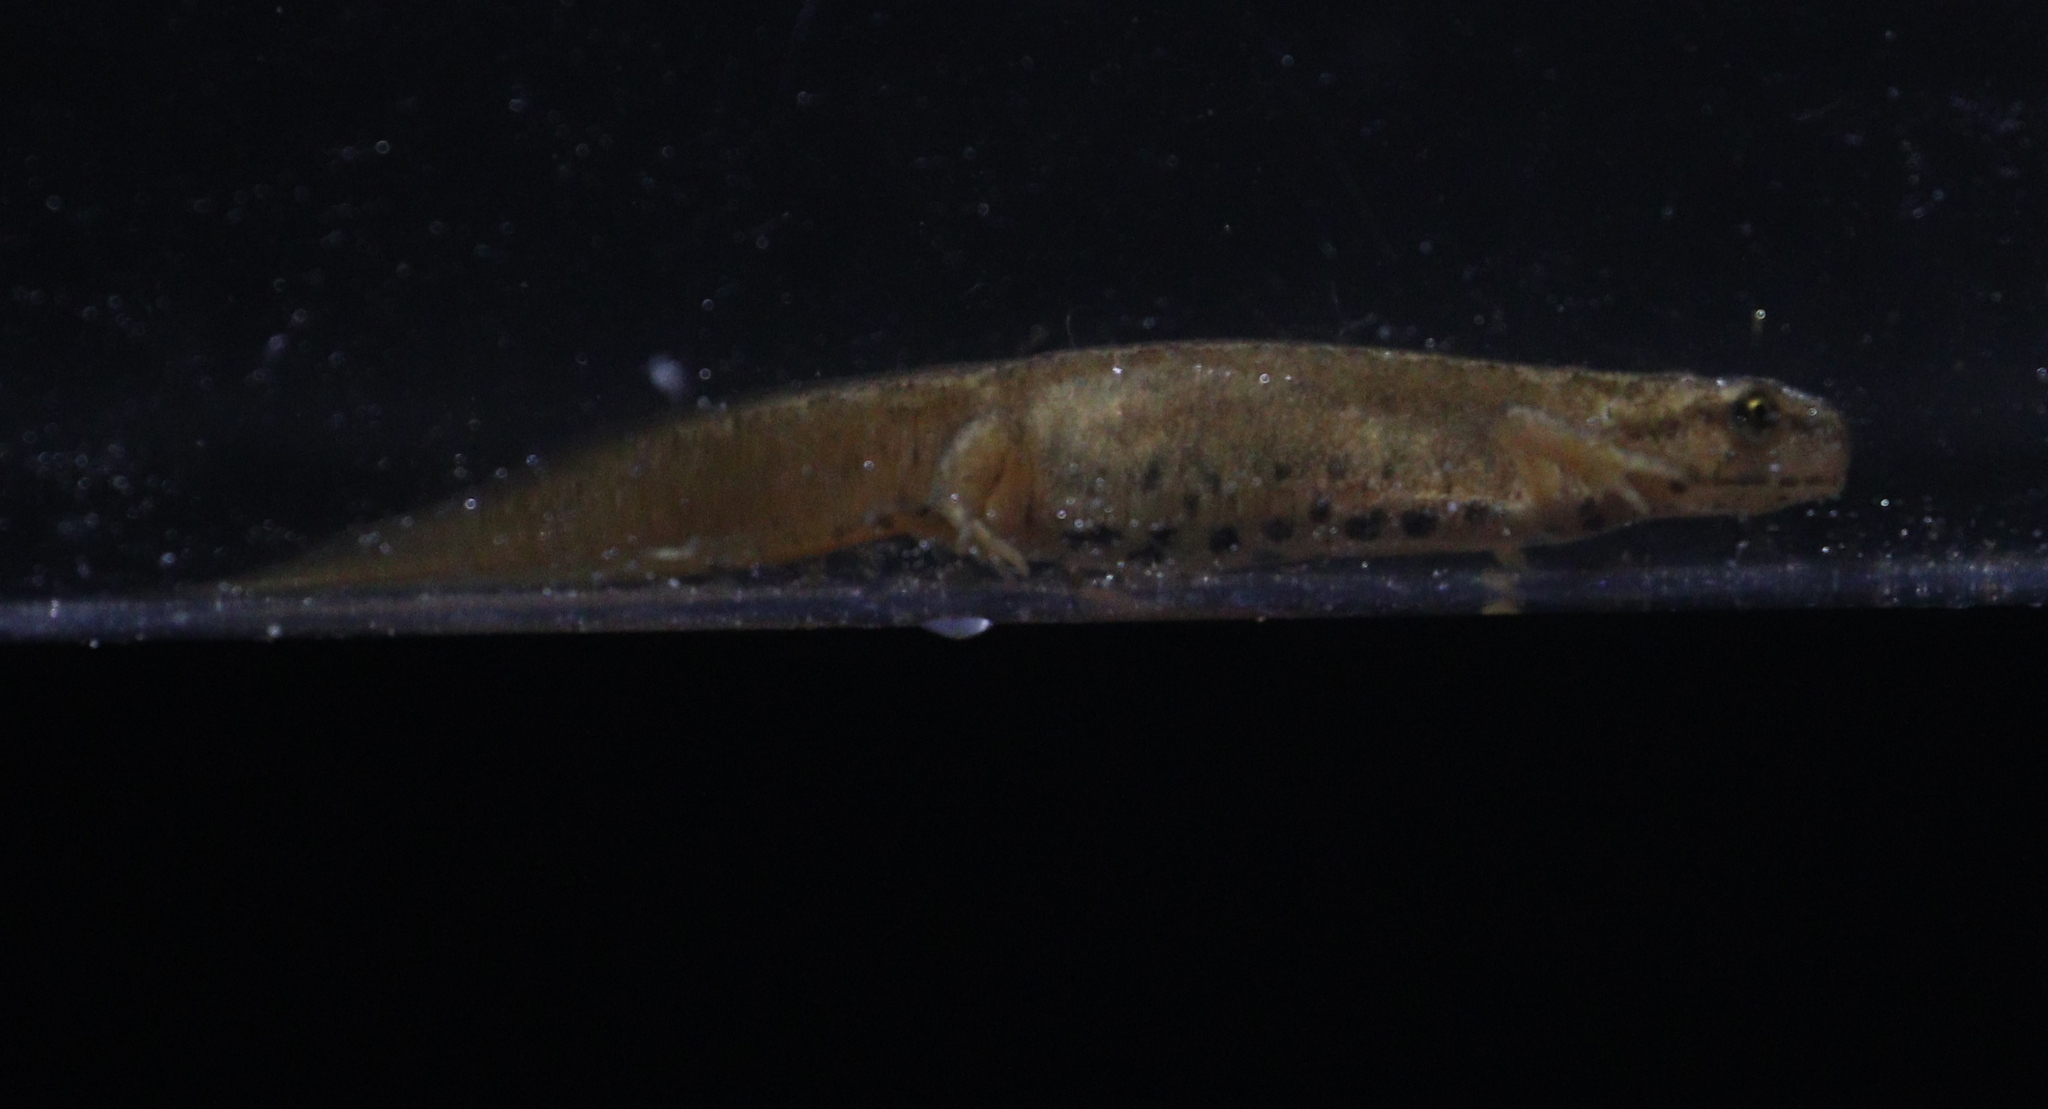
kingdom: Animalia
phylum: Chordata
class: Amphibia
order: Caudata
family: Salamandridae
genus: Lissotriton
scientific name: Lissotriton vulgaris
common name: Smooth newt
